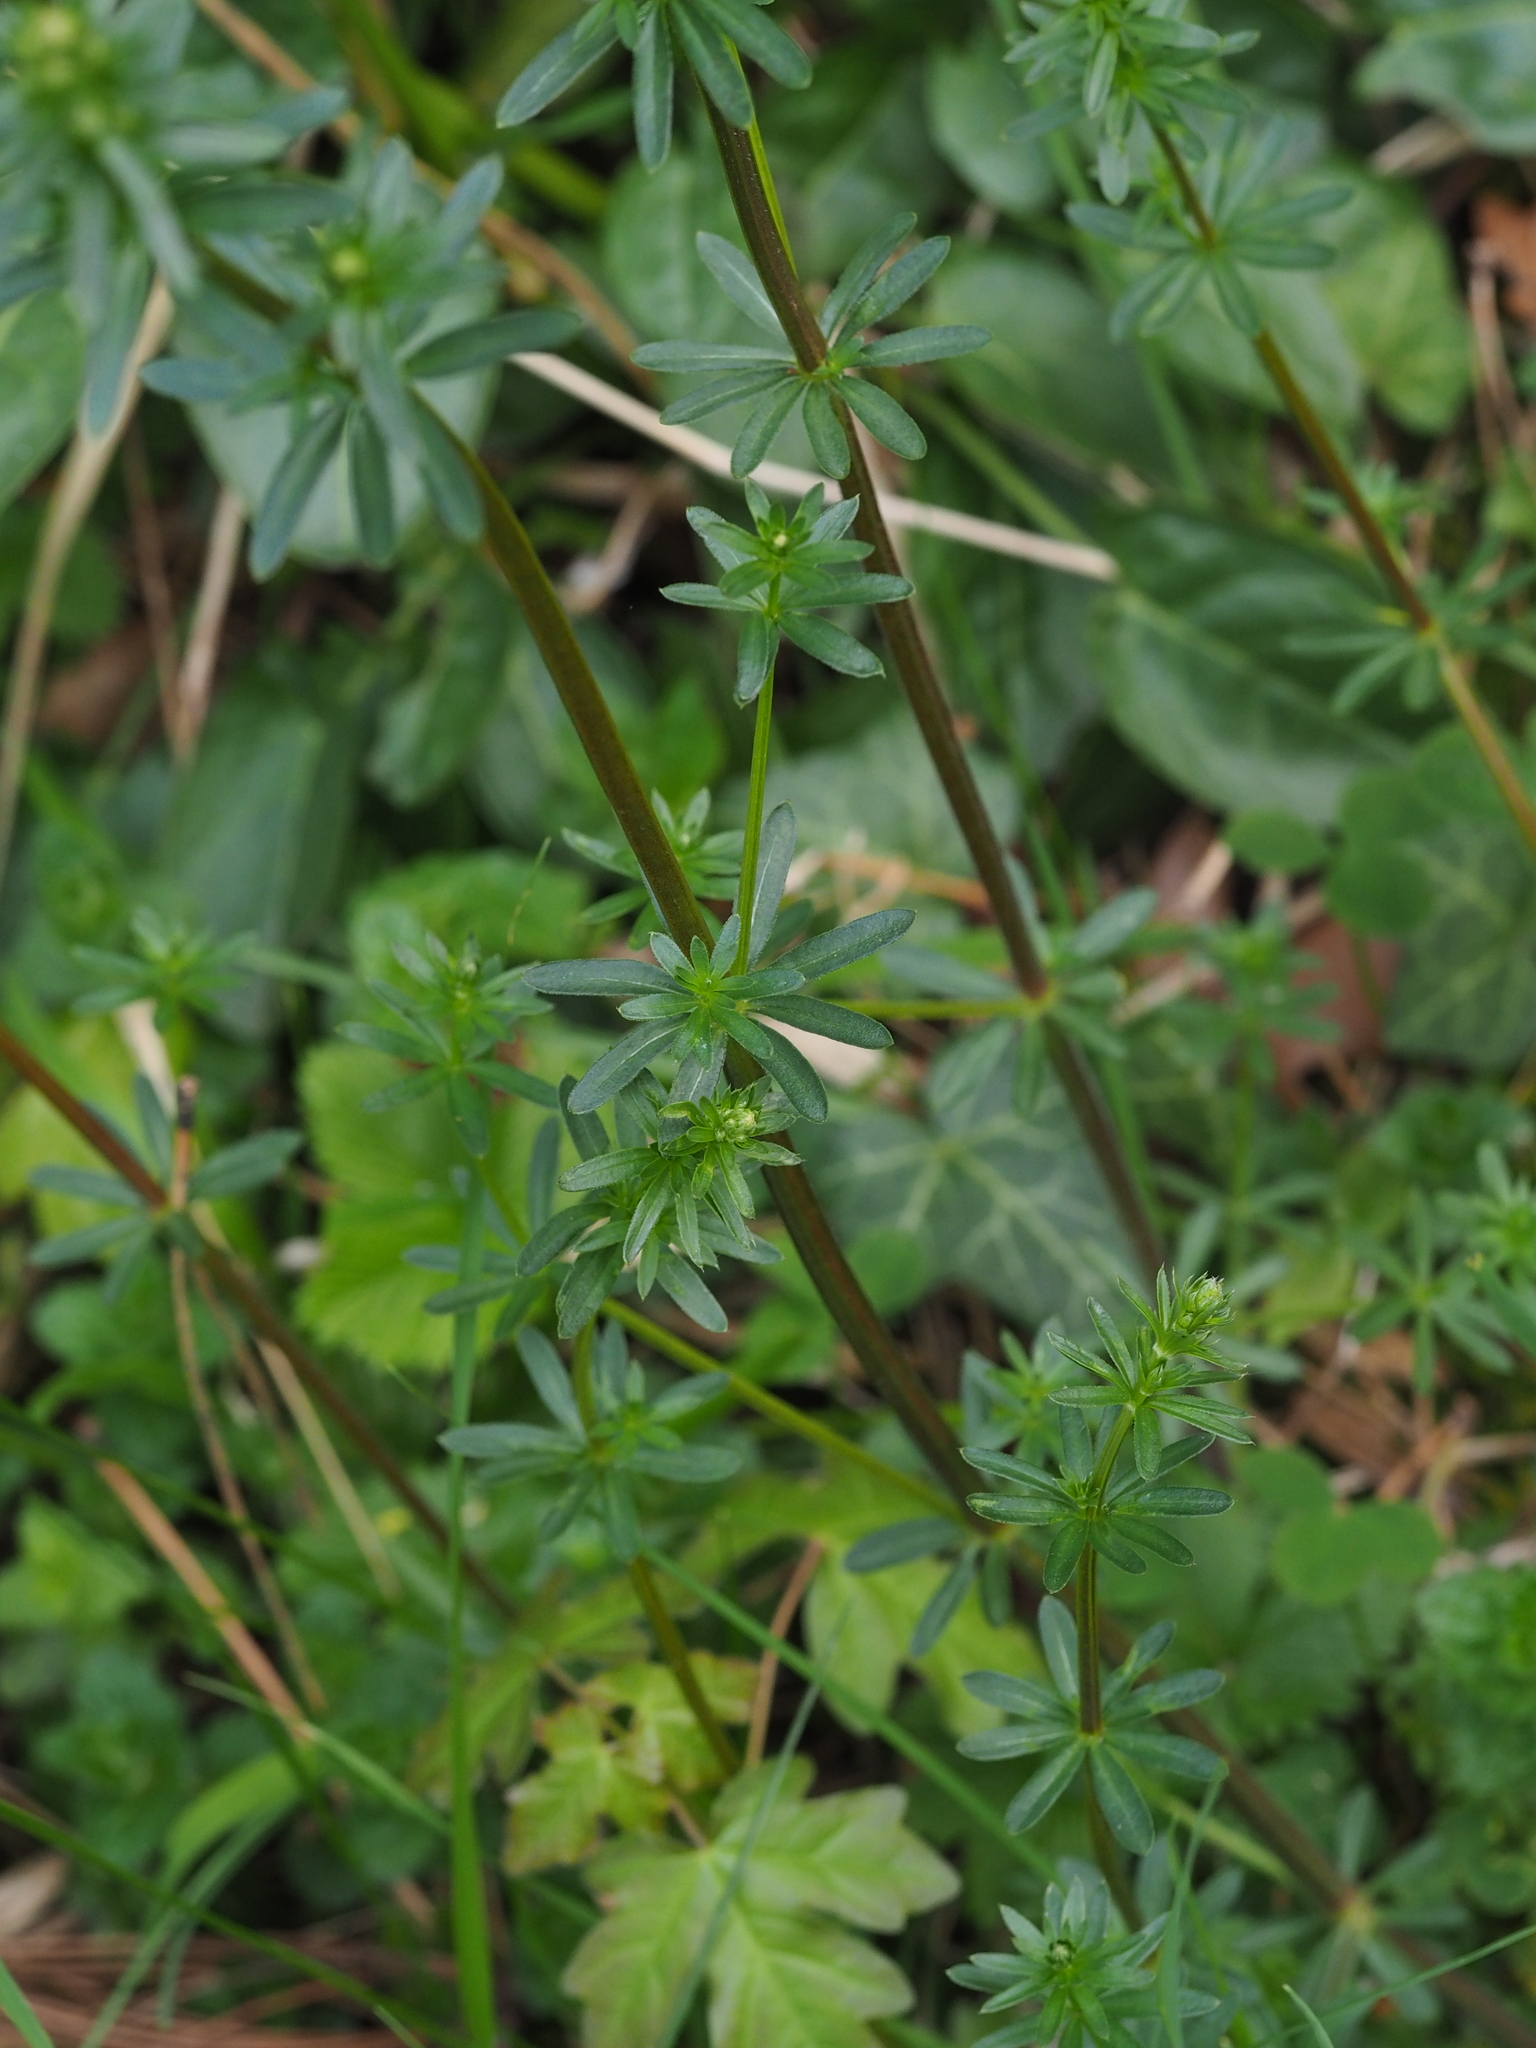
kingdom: Plantae
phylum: Tracheophyta
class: Magnoliopsida
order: Gentianales
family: Rubiaceae
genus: Galium
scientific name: Galium mollugo
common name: Hedge bedstraw
